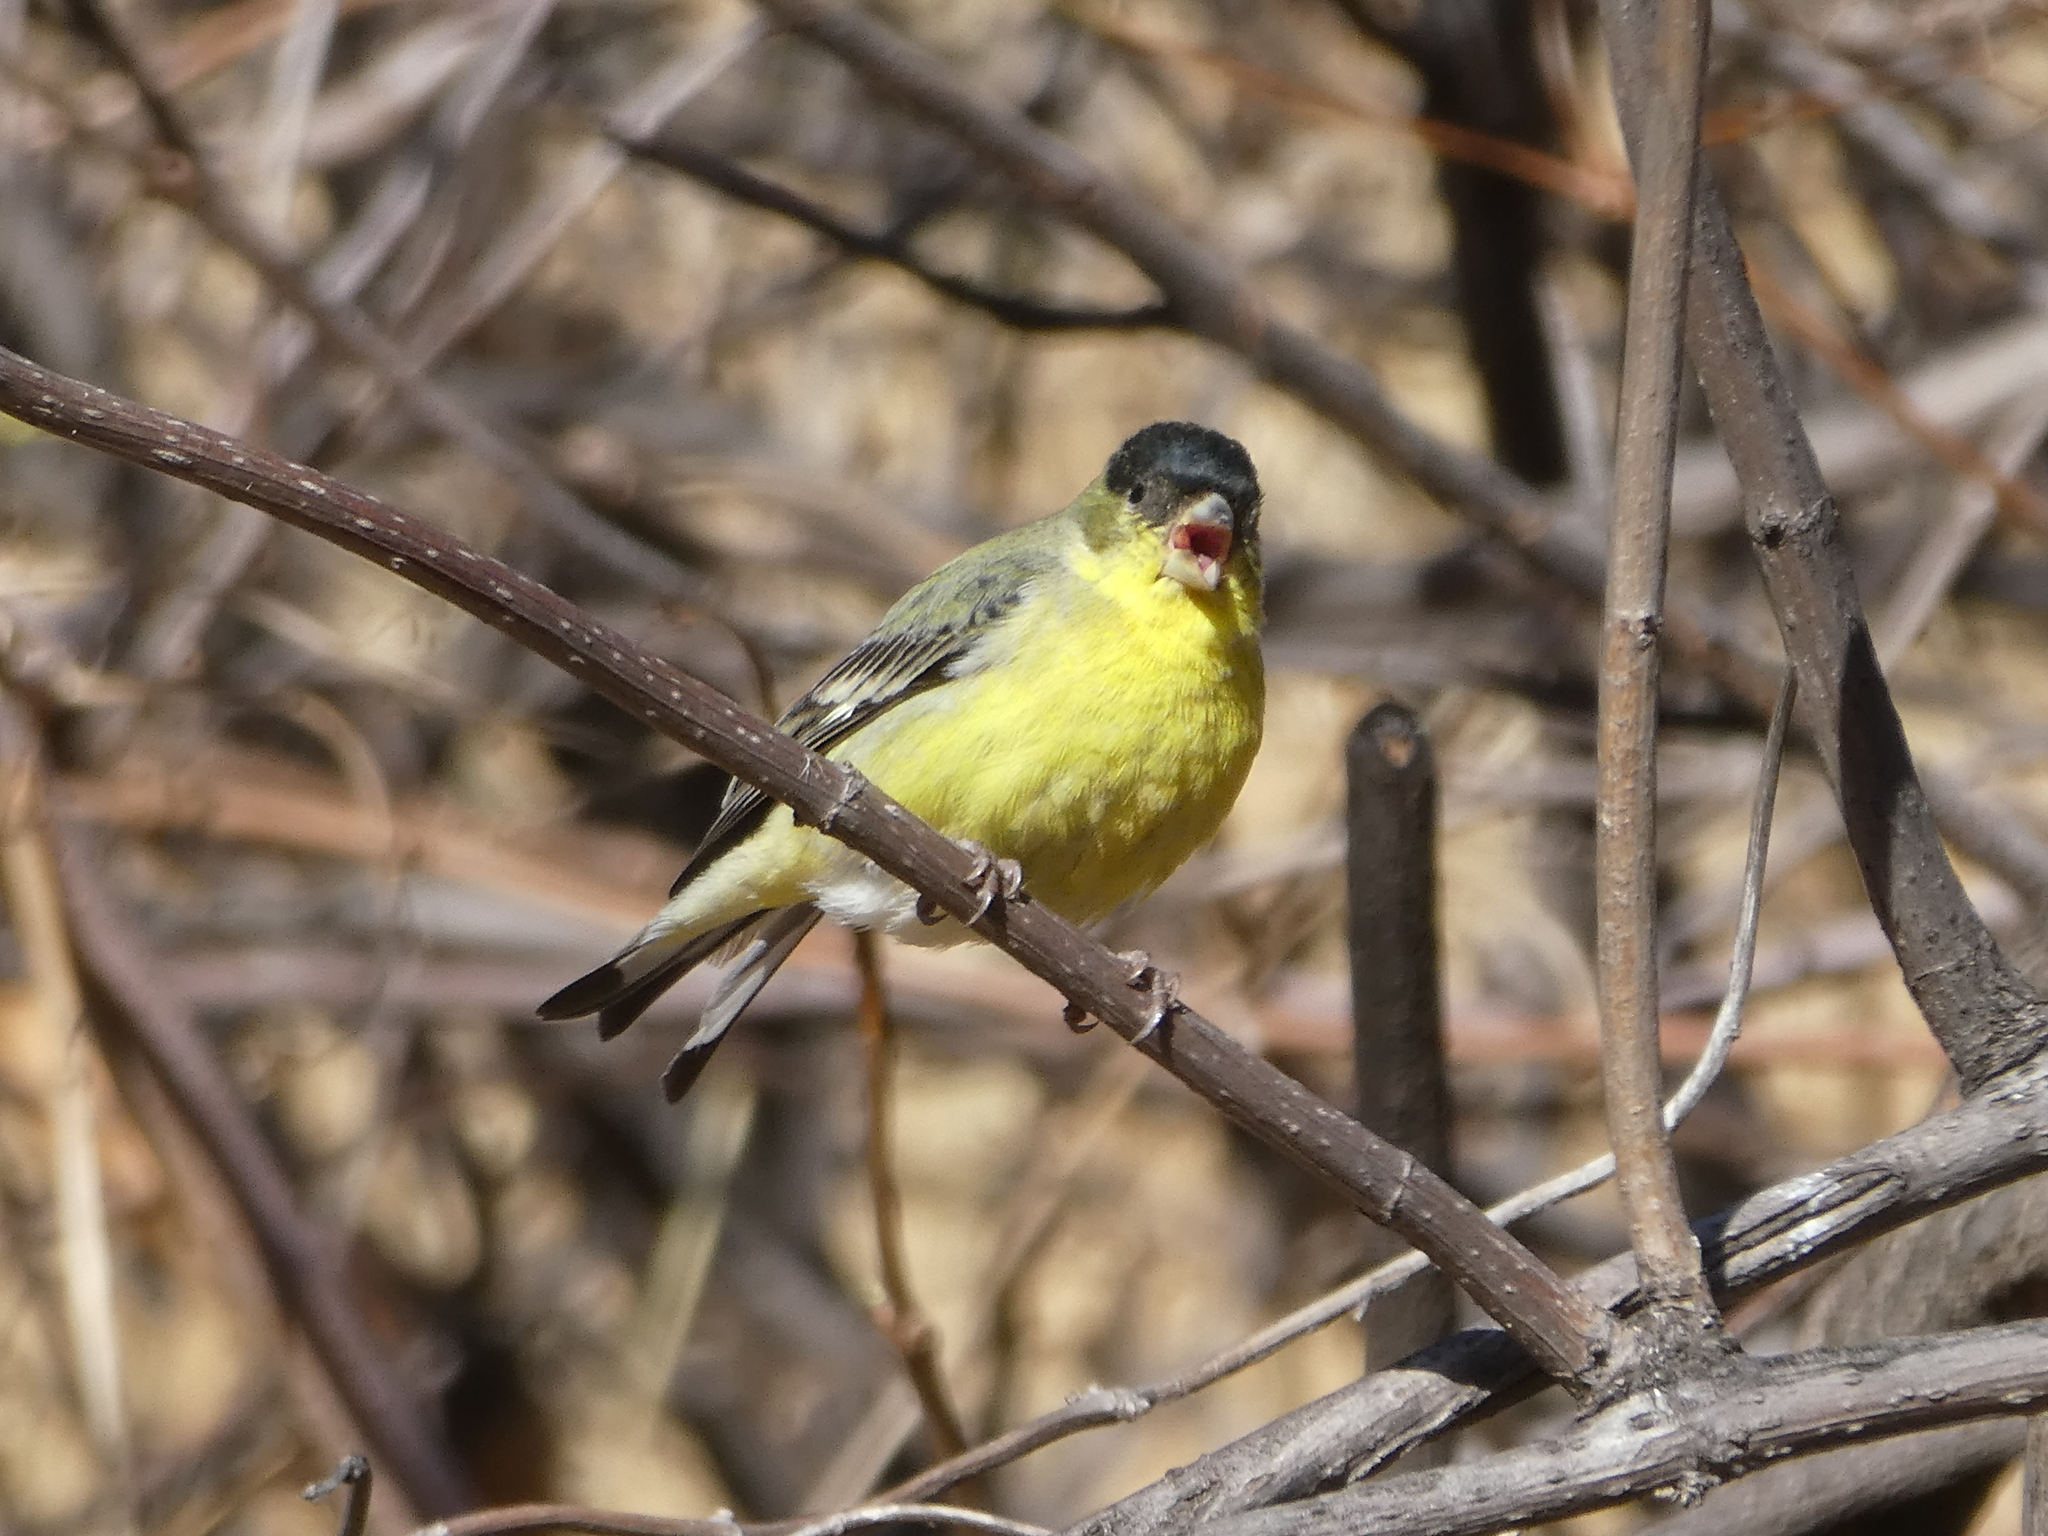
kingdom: Animalia
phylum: Chordata
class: Aves
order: Passeriformes
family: Fringillidae
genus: Spinus
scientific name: Spinus psaltria
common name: Lesser goldfinch
